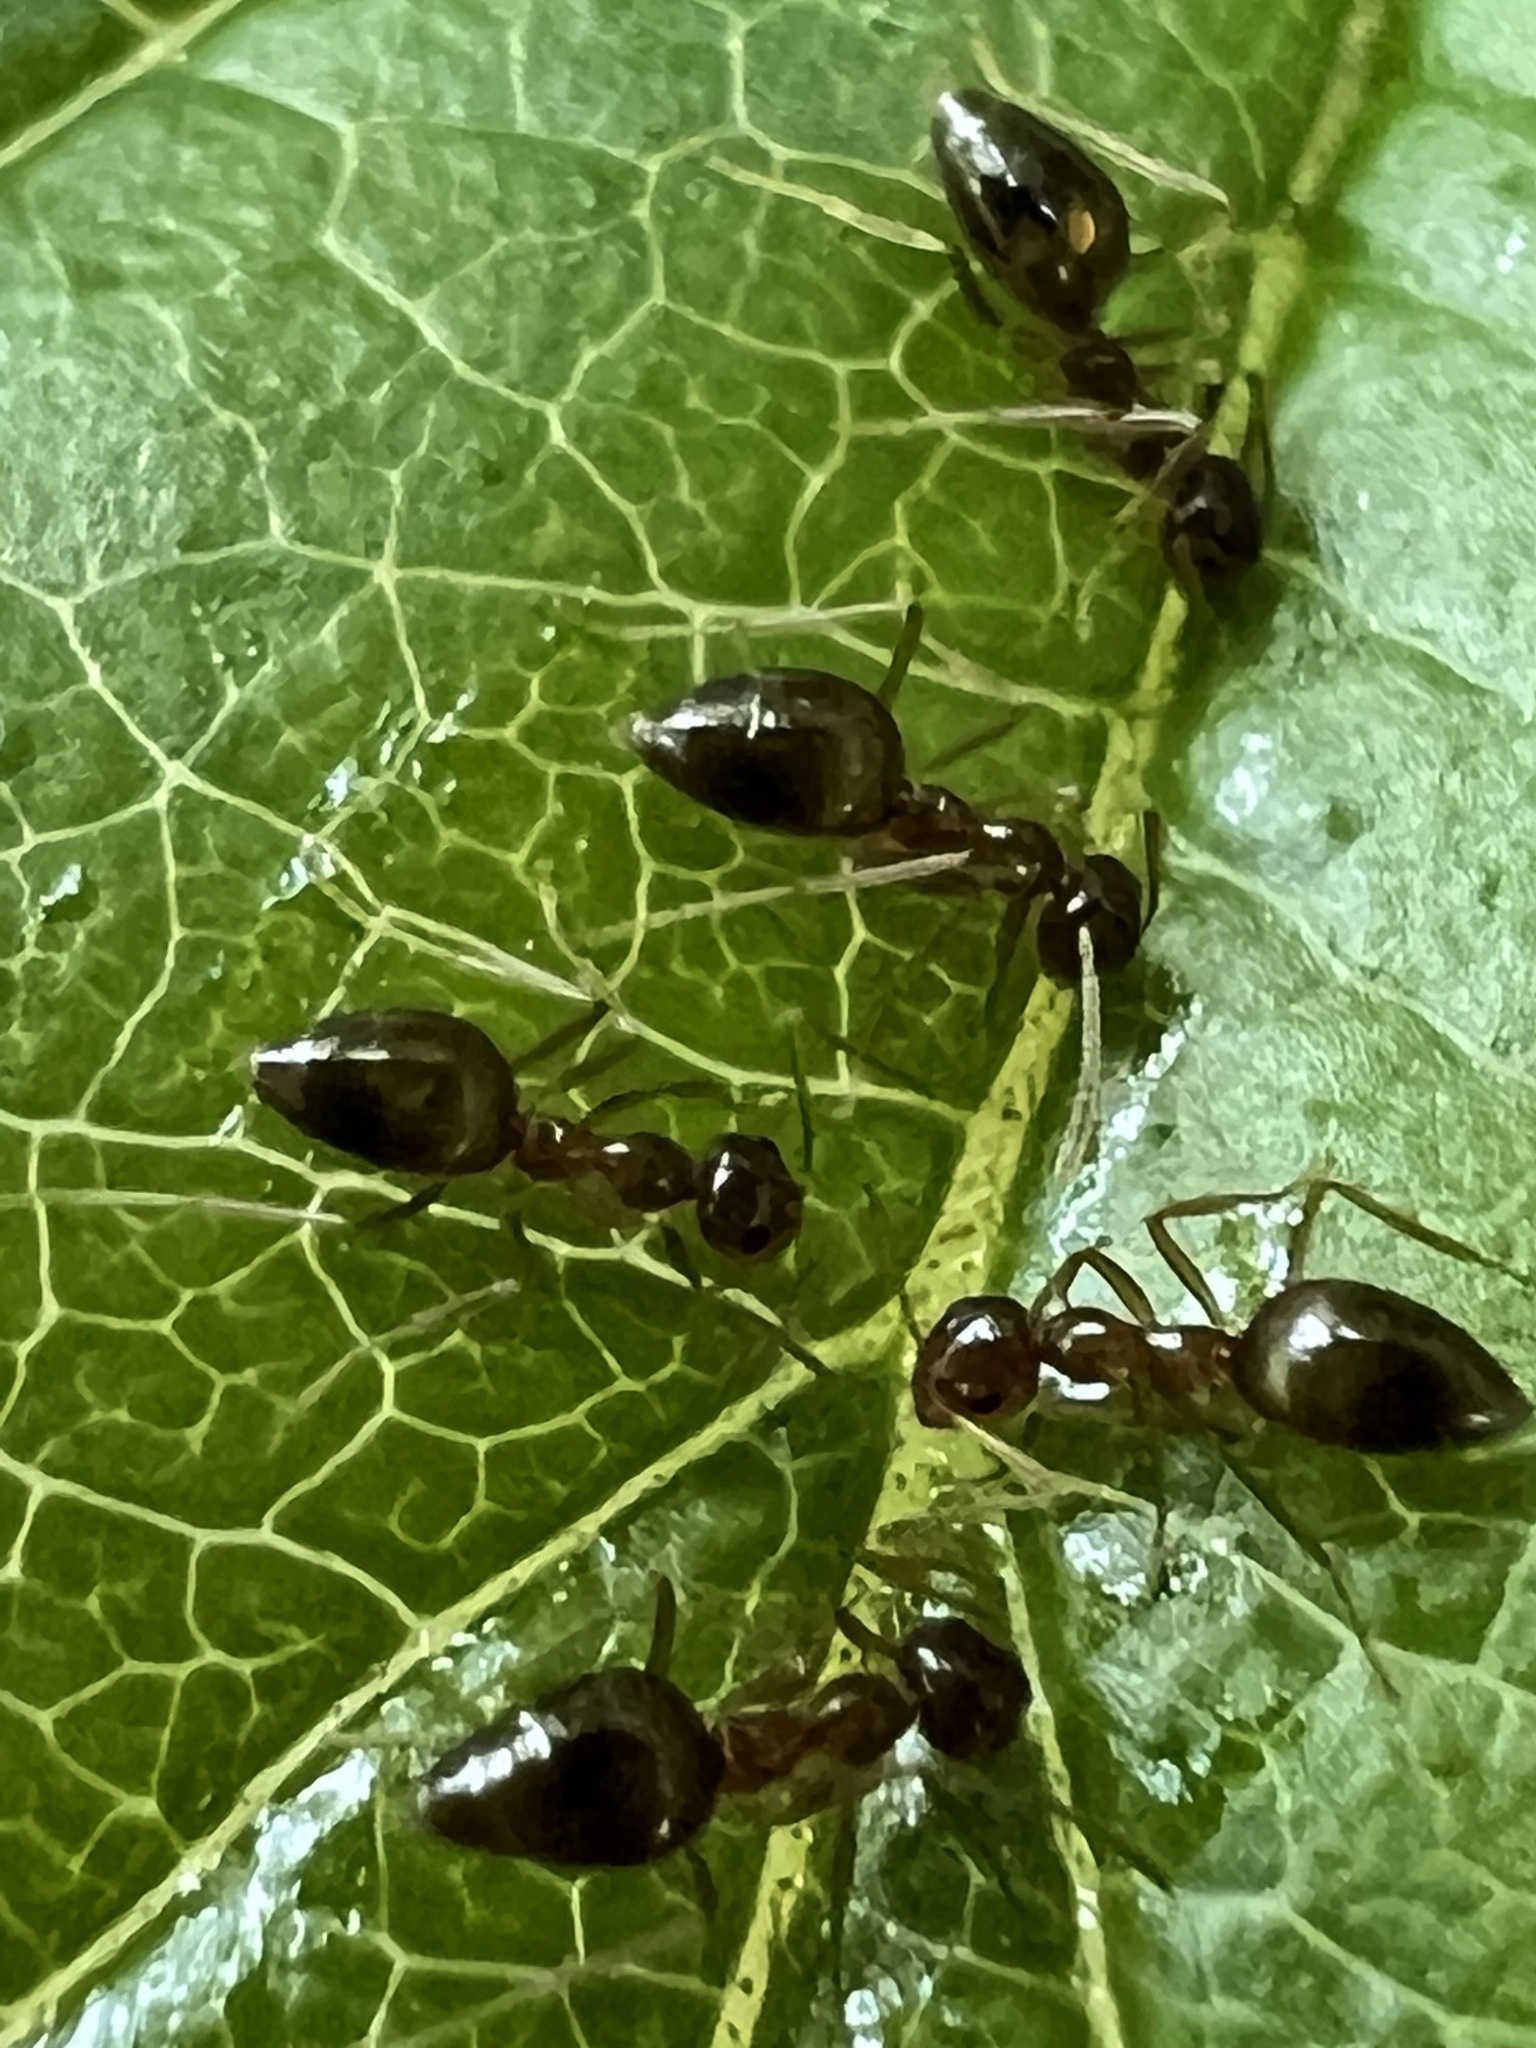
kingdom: Animalia
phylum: Arthropoda
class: Insecta
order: Hymenoptera
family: Formicidae
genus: Prenolepis
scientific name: Prenolepis imparis
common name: Small honey ant
